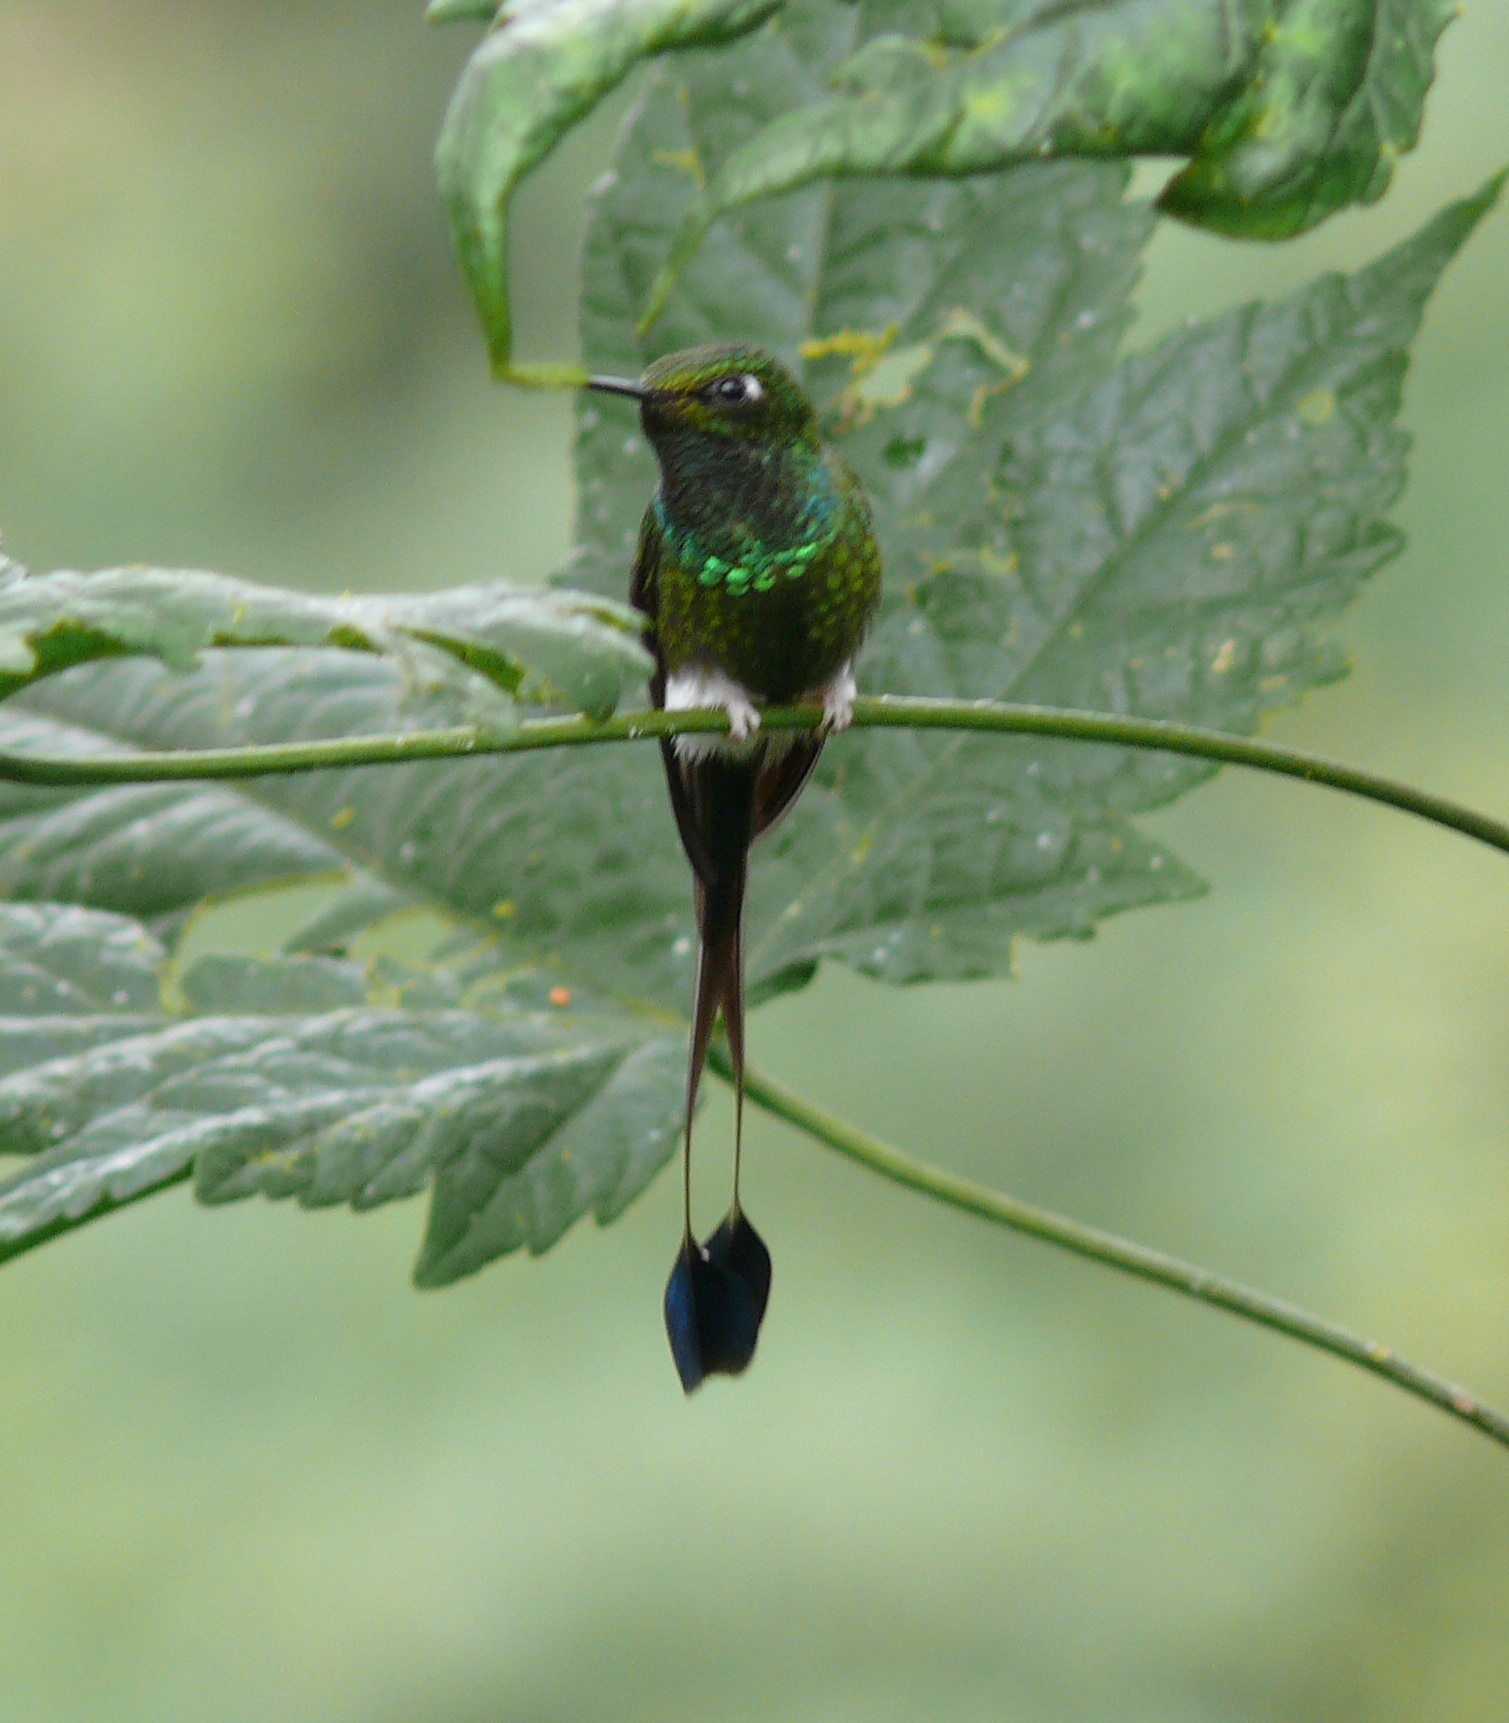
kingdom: Animalia
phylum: Chordata
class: Aves
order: Apodiformes
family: Trochilidae
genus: Ocreatus
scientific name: Ocreatus underwoodii
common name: Booted racket-tail
